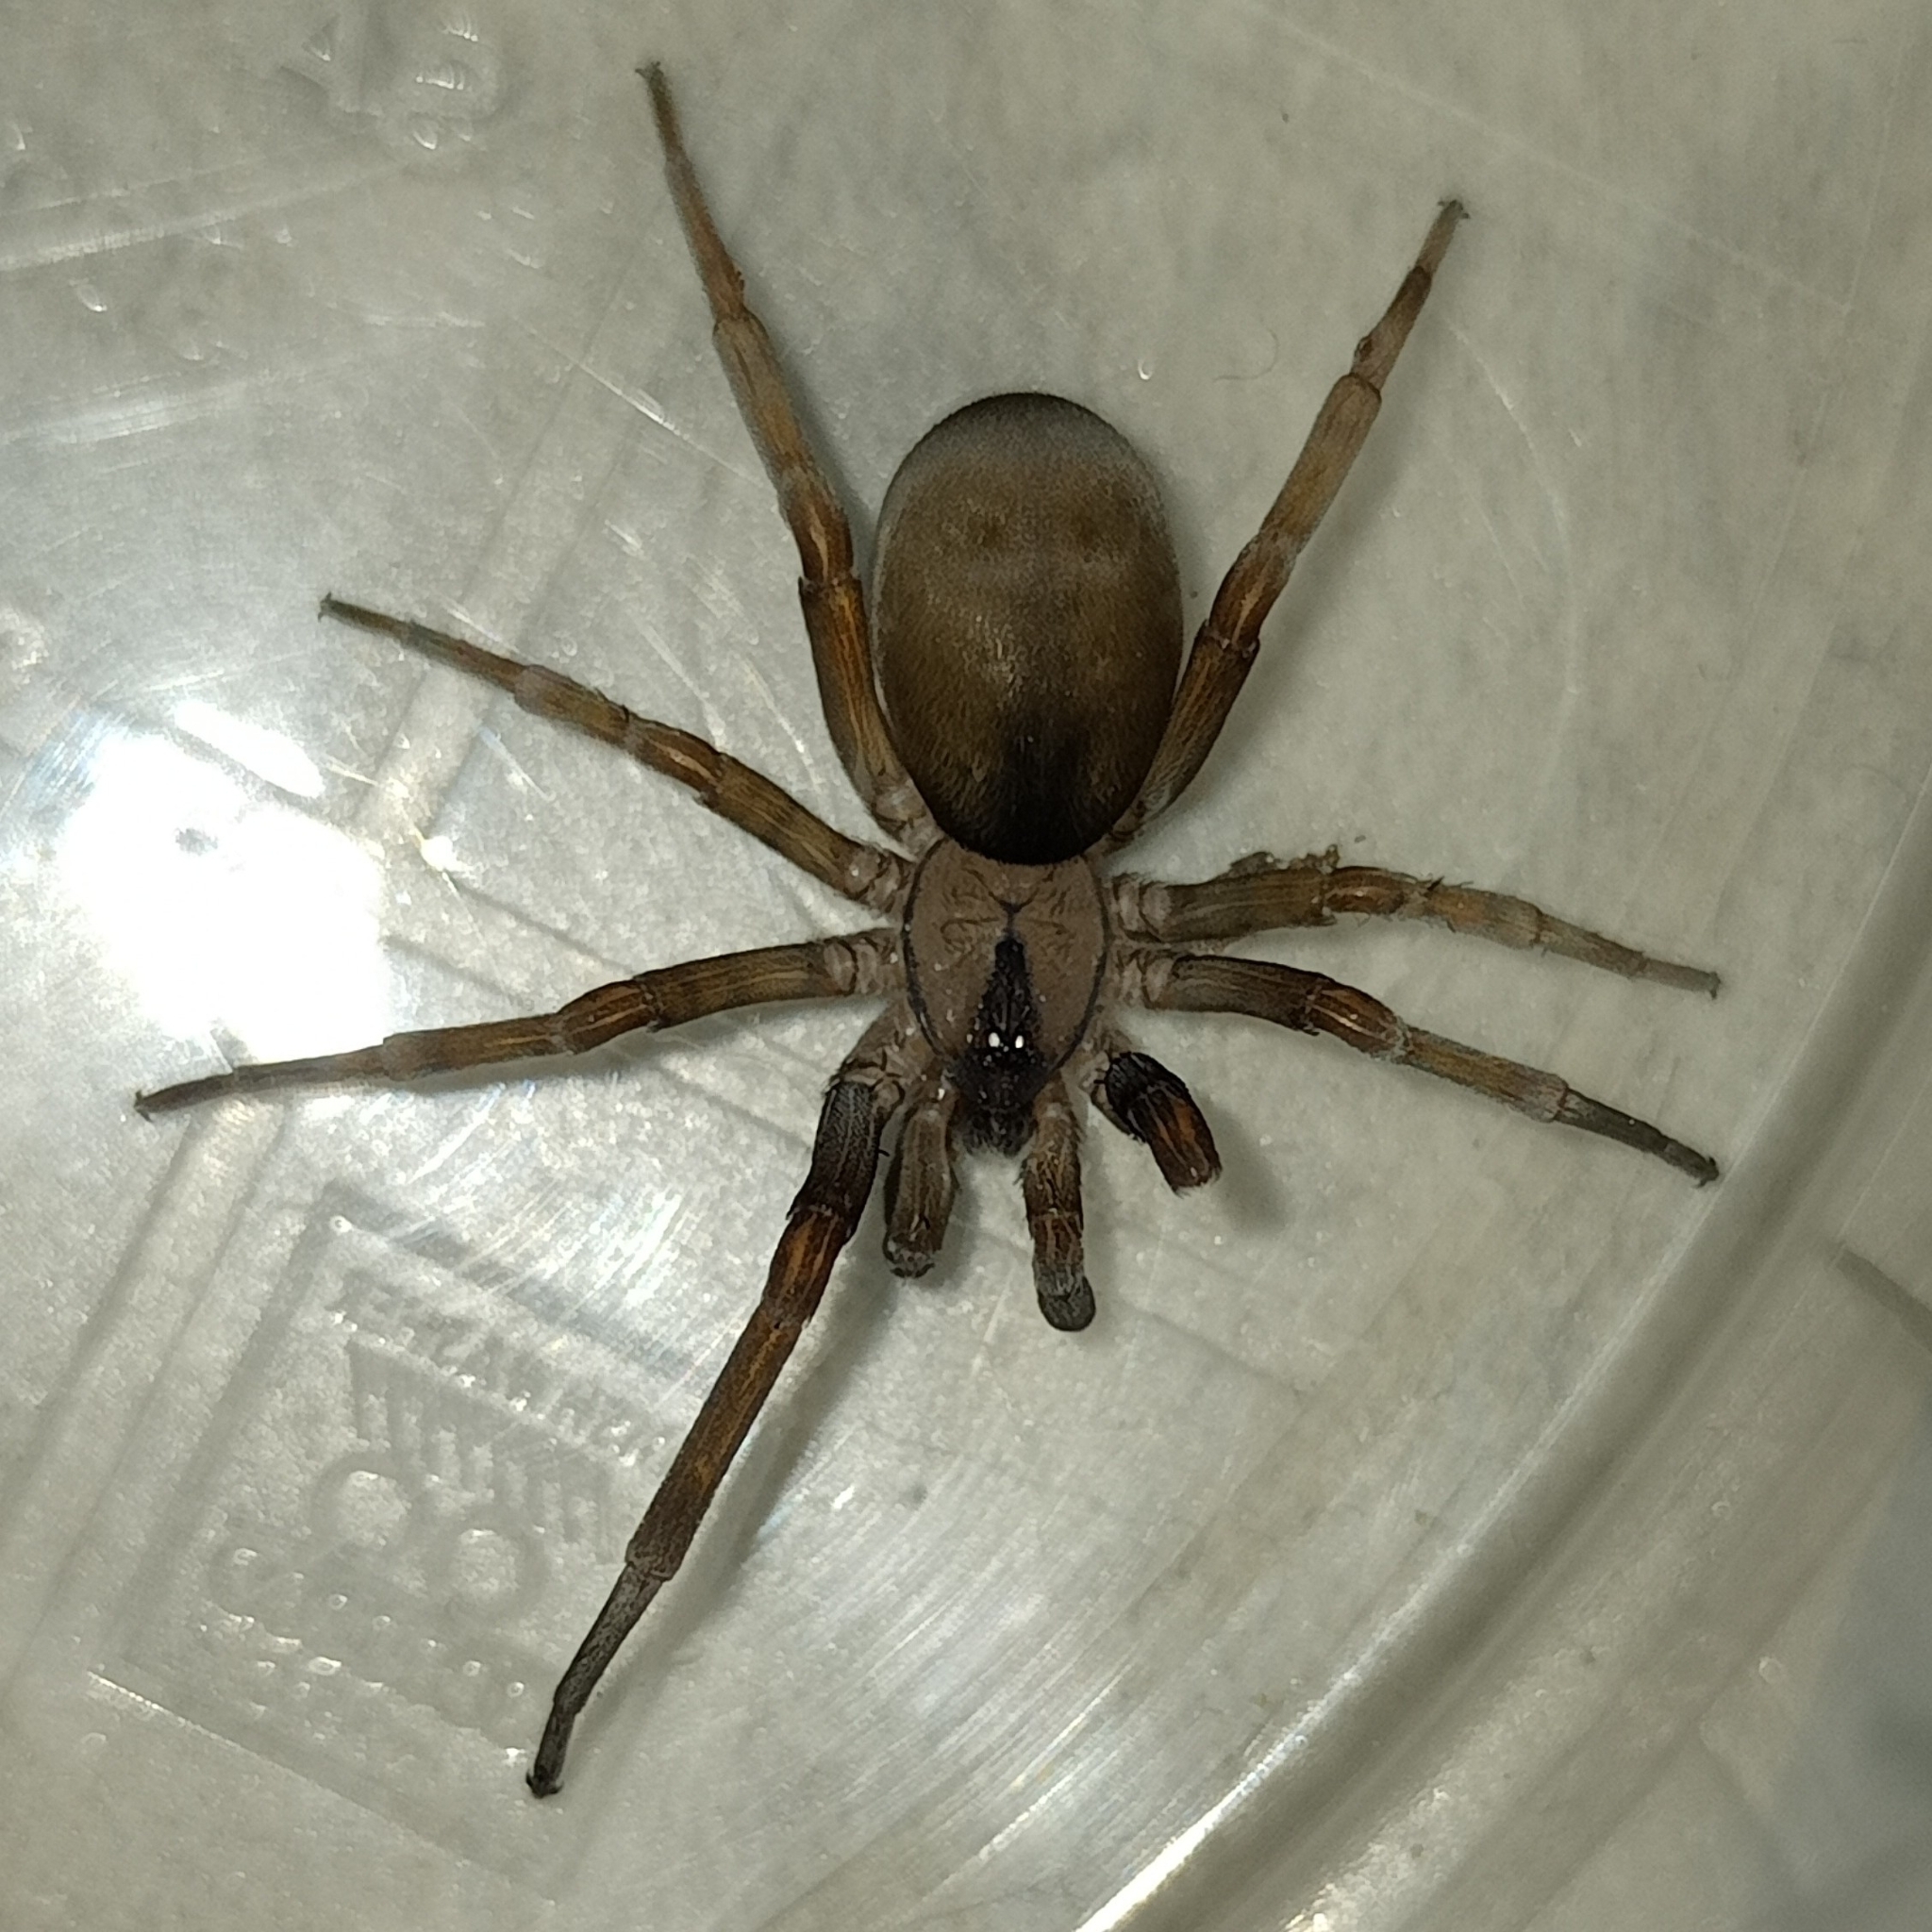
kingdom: Animalia
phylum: Arthropoda
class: Arachnida
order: Araneae
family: Filistatidae
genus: Filistata
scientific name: Filistata insidiatrix
